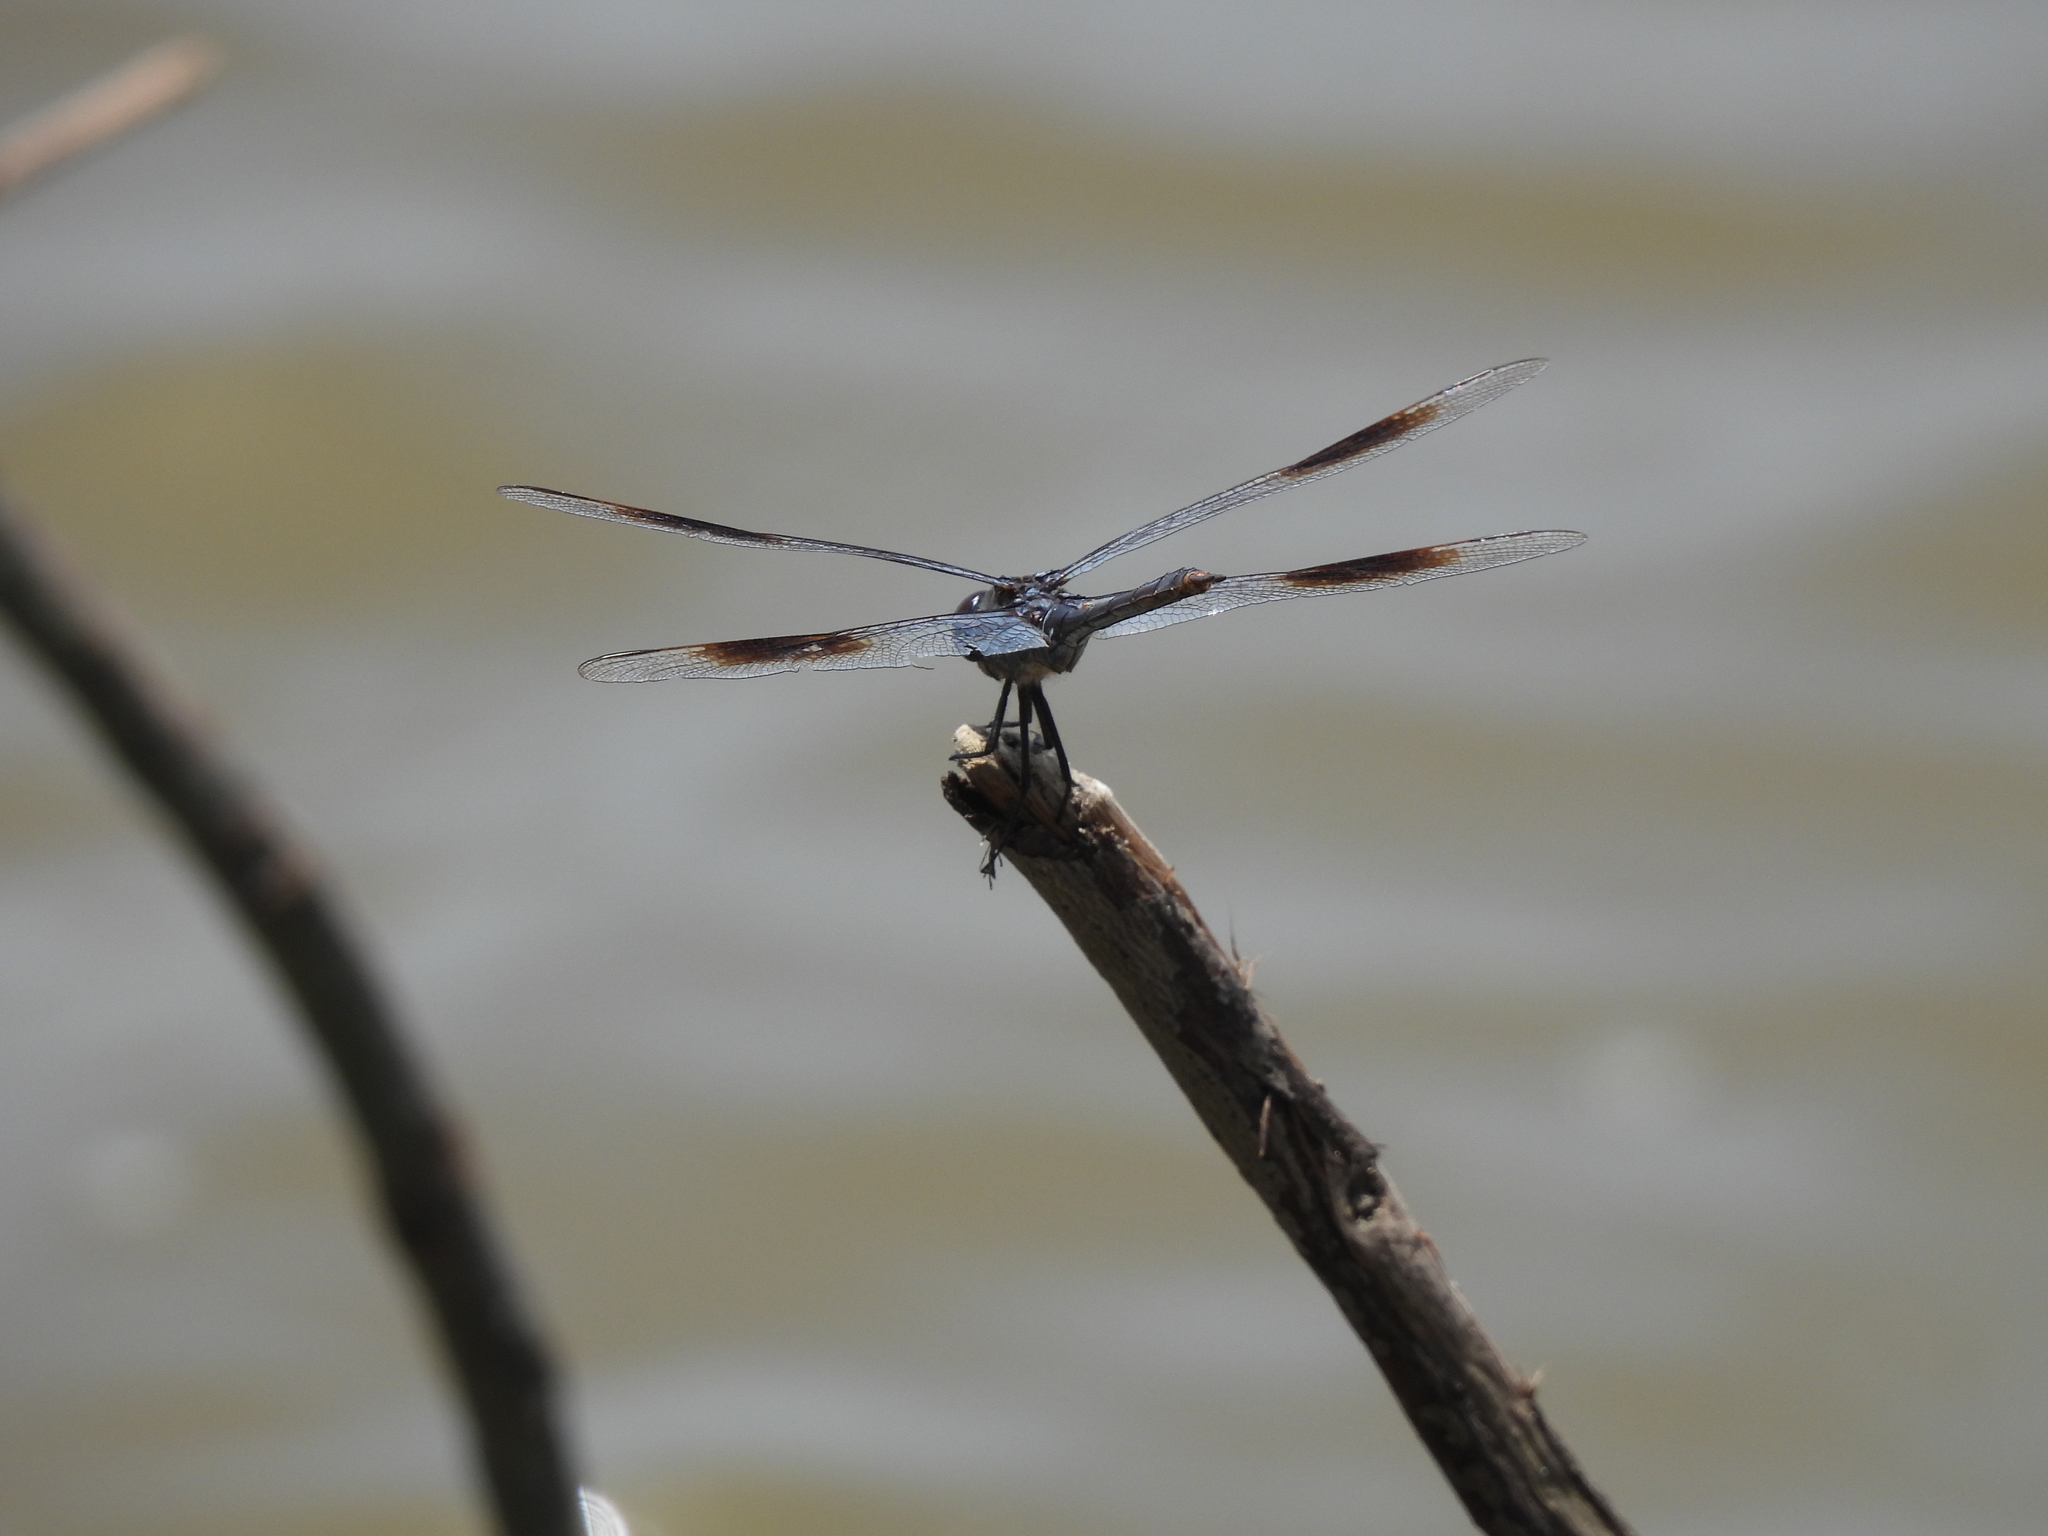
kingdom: Animalia
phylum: Arthropoda
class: Insecta
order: Odonata
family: Libellulidae
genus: Brachymesia
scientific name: Brachymesia gravida
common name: Four-spotted pennant
